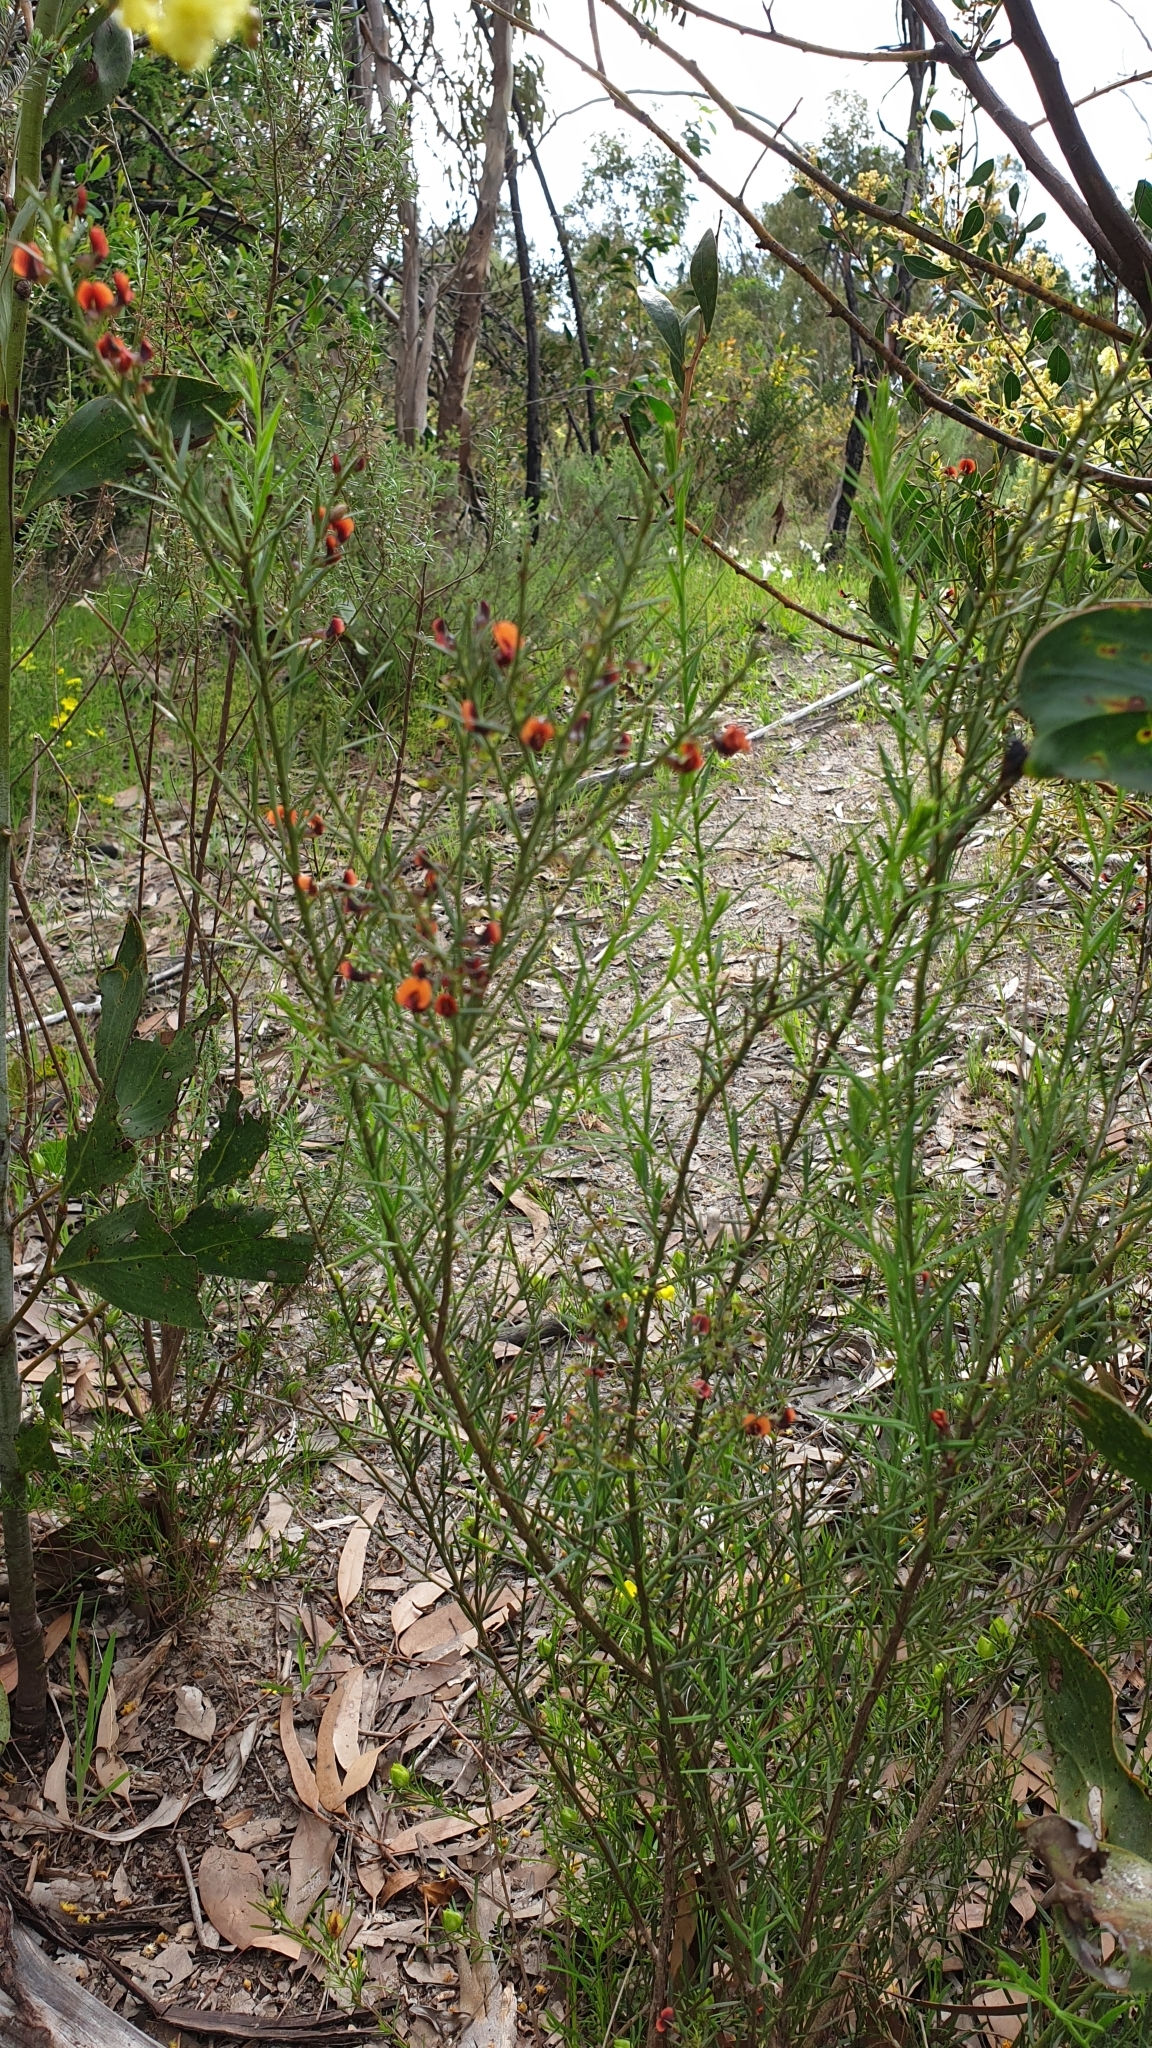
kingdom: Plantae
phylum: Tracheophyta
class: Magnoliopsida
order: Fabales
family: Fabaceae
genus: Daviesia
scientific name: Daviesia ulicifolia
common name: Gorse bitter-pea
